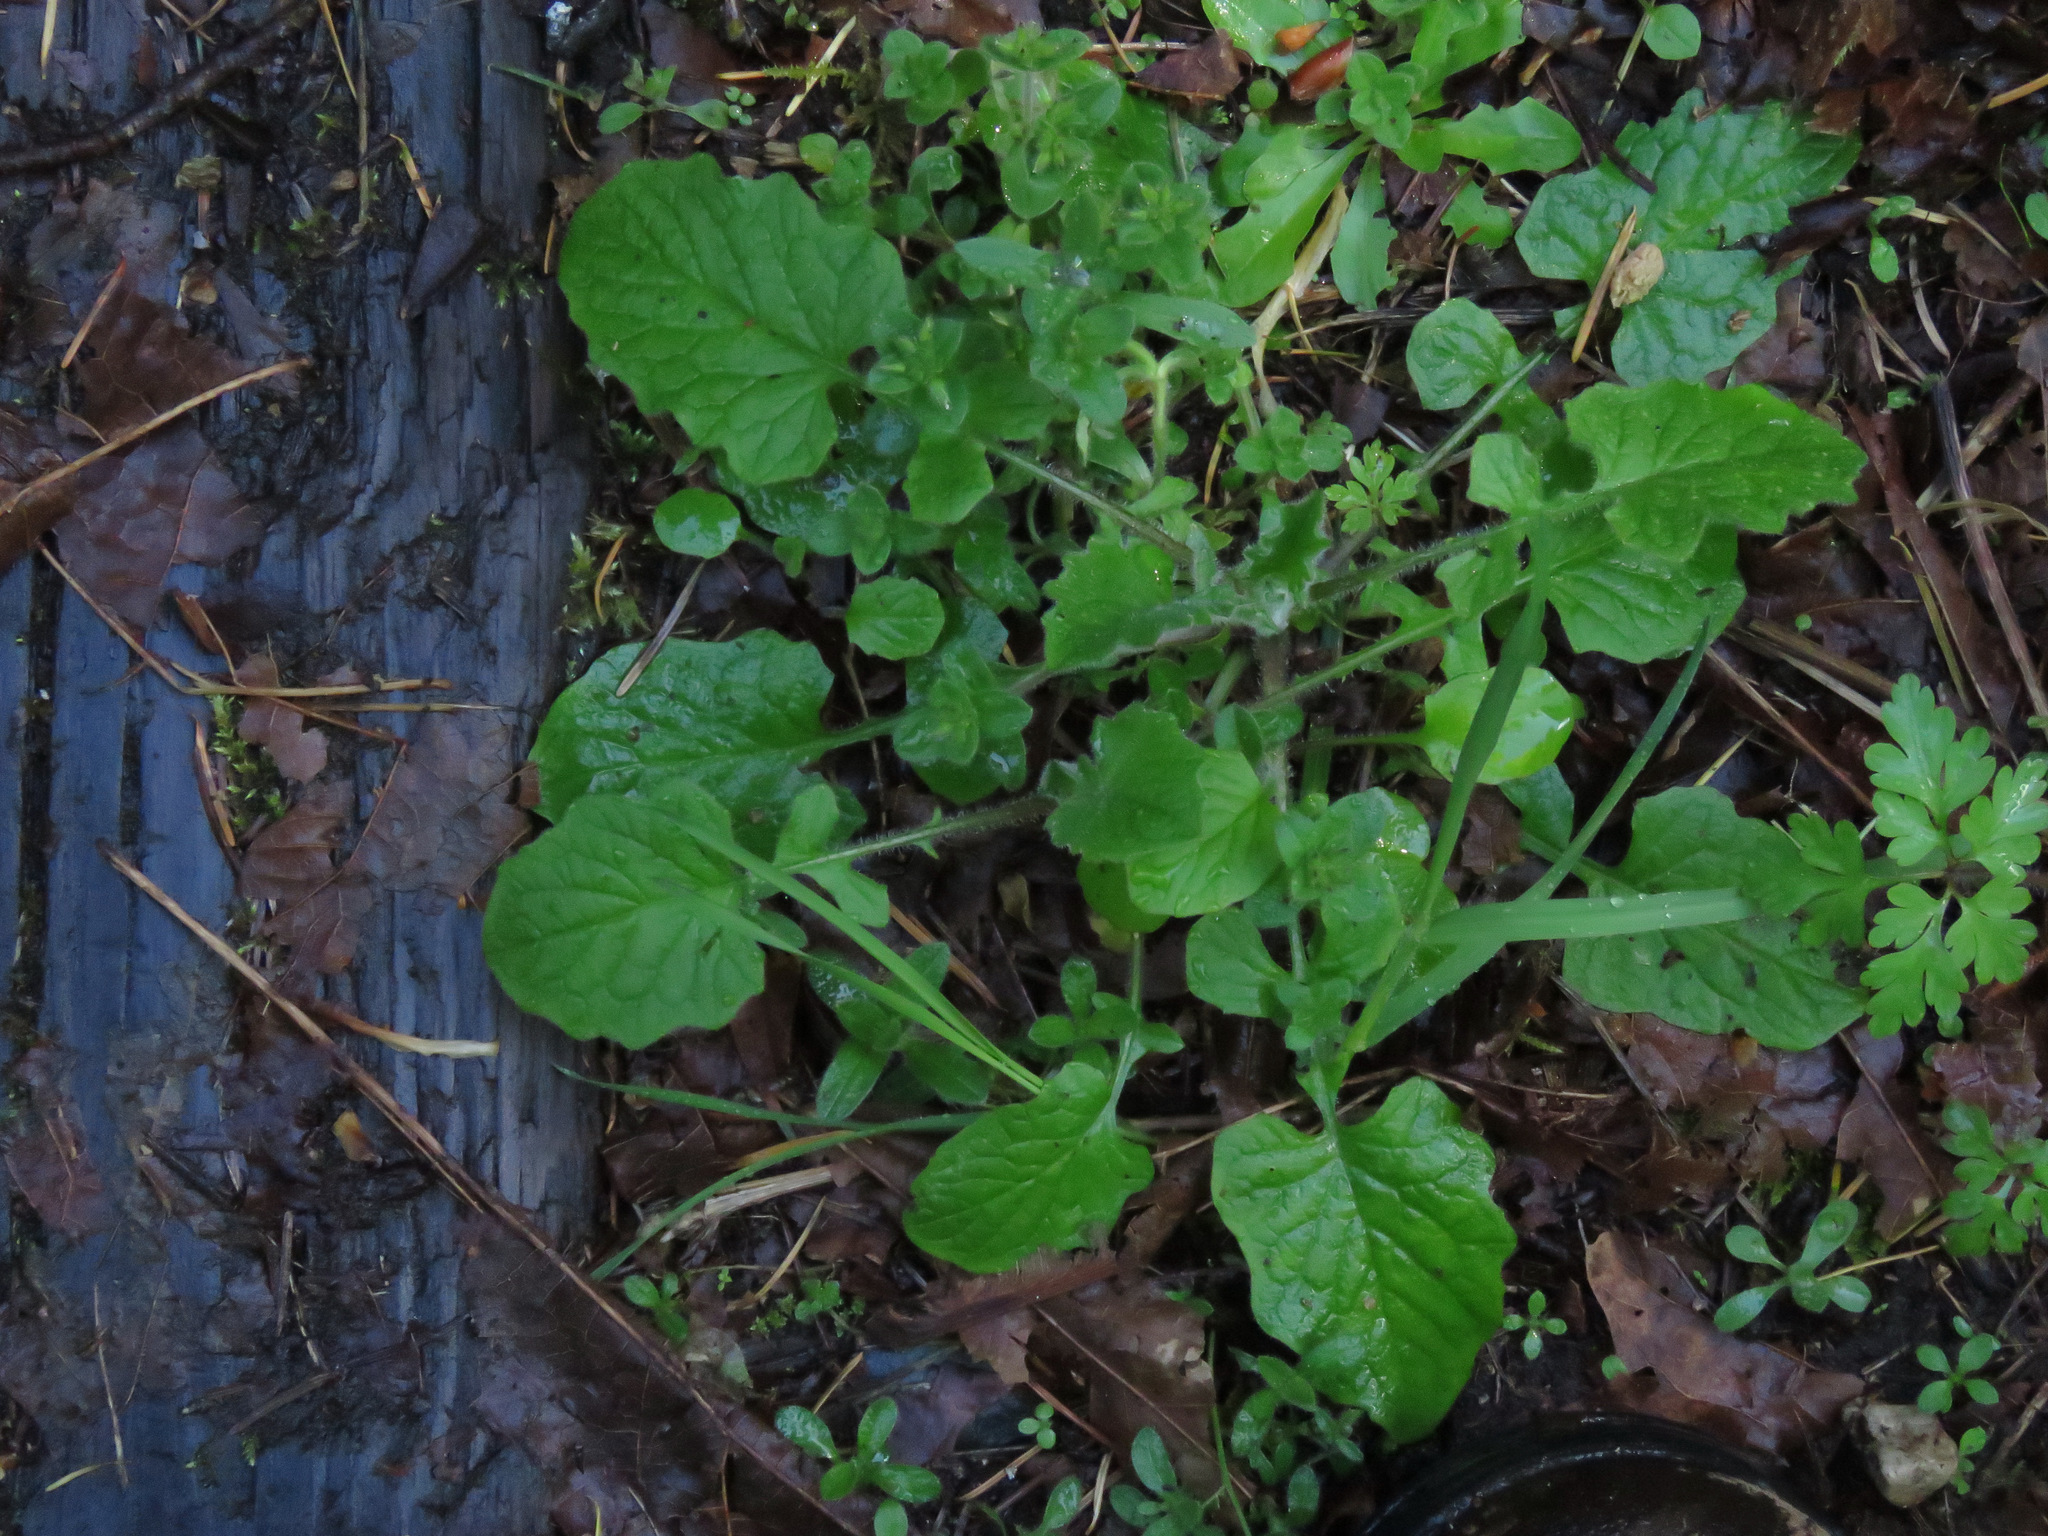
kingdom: Plantae
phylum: Tracheophyta
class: Magnoliopsida
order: Asterales
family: Asteraceae
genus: Lapsana
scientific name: Lapsana communis
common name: Nipplewort
